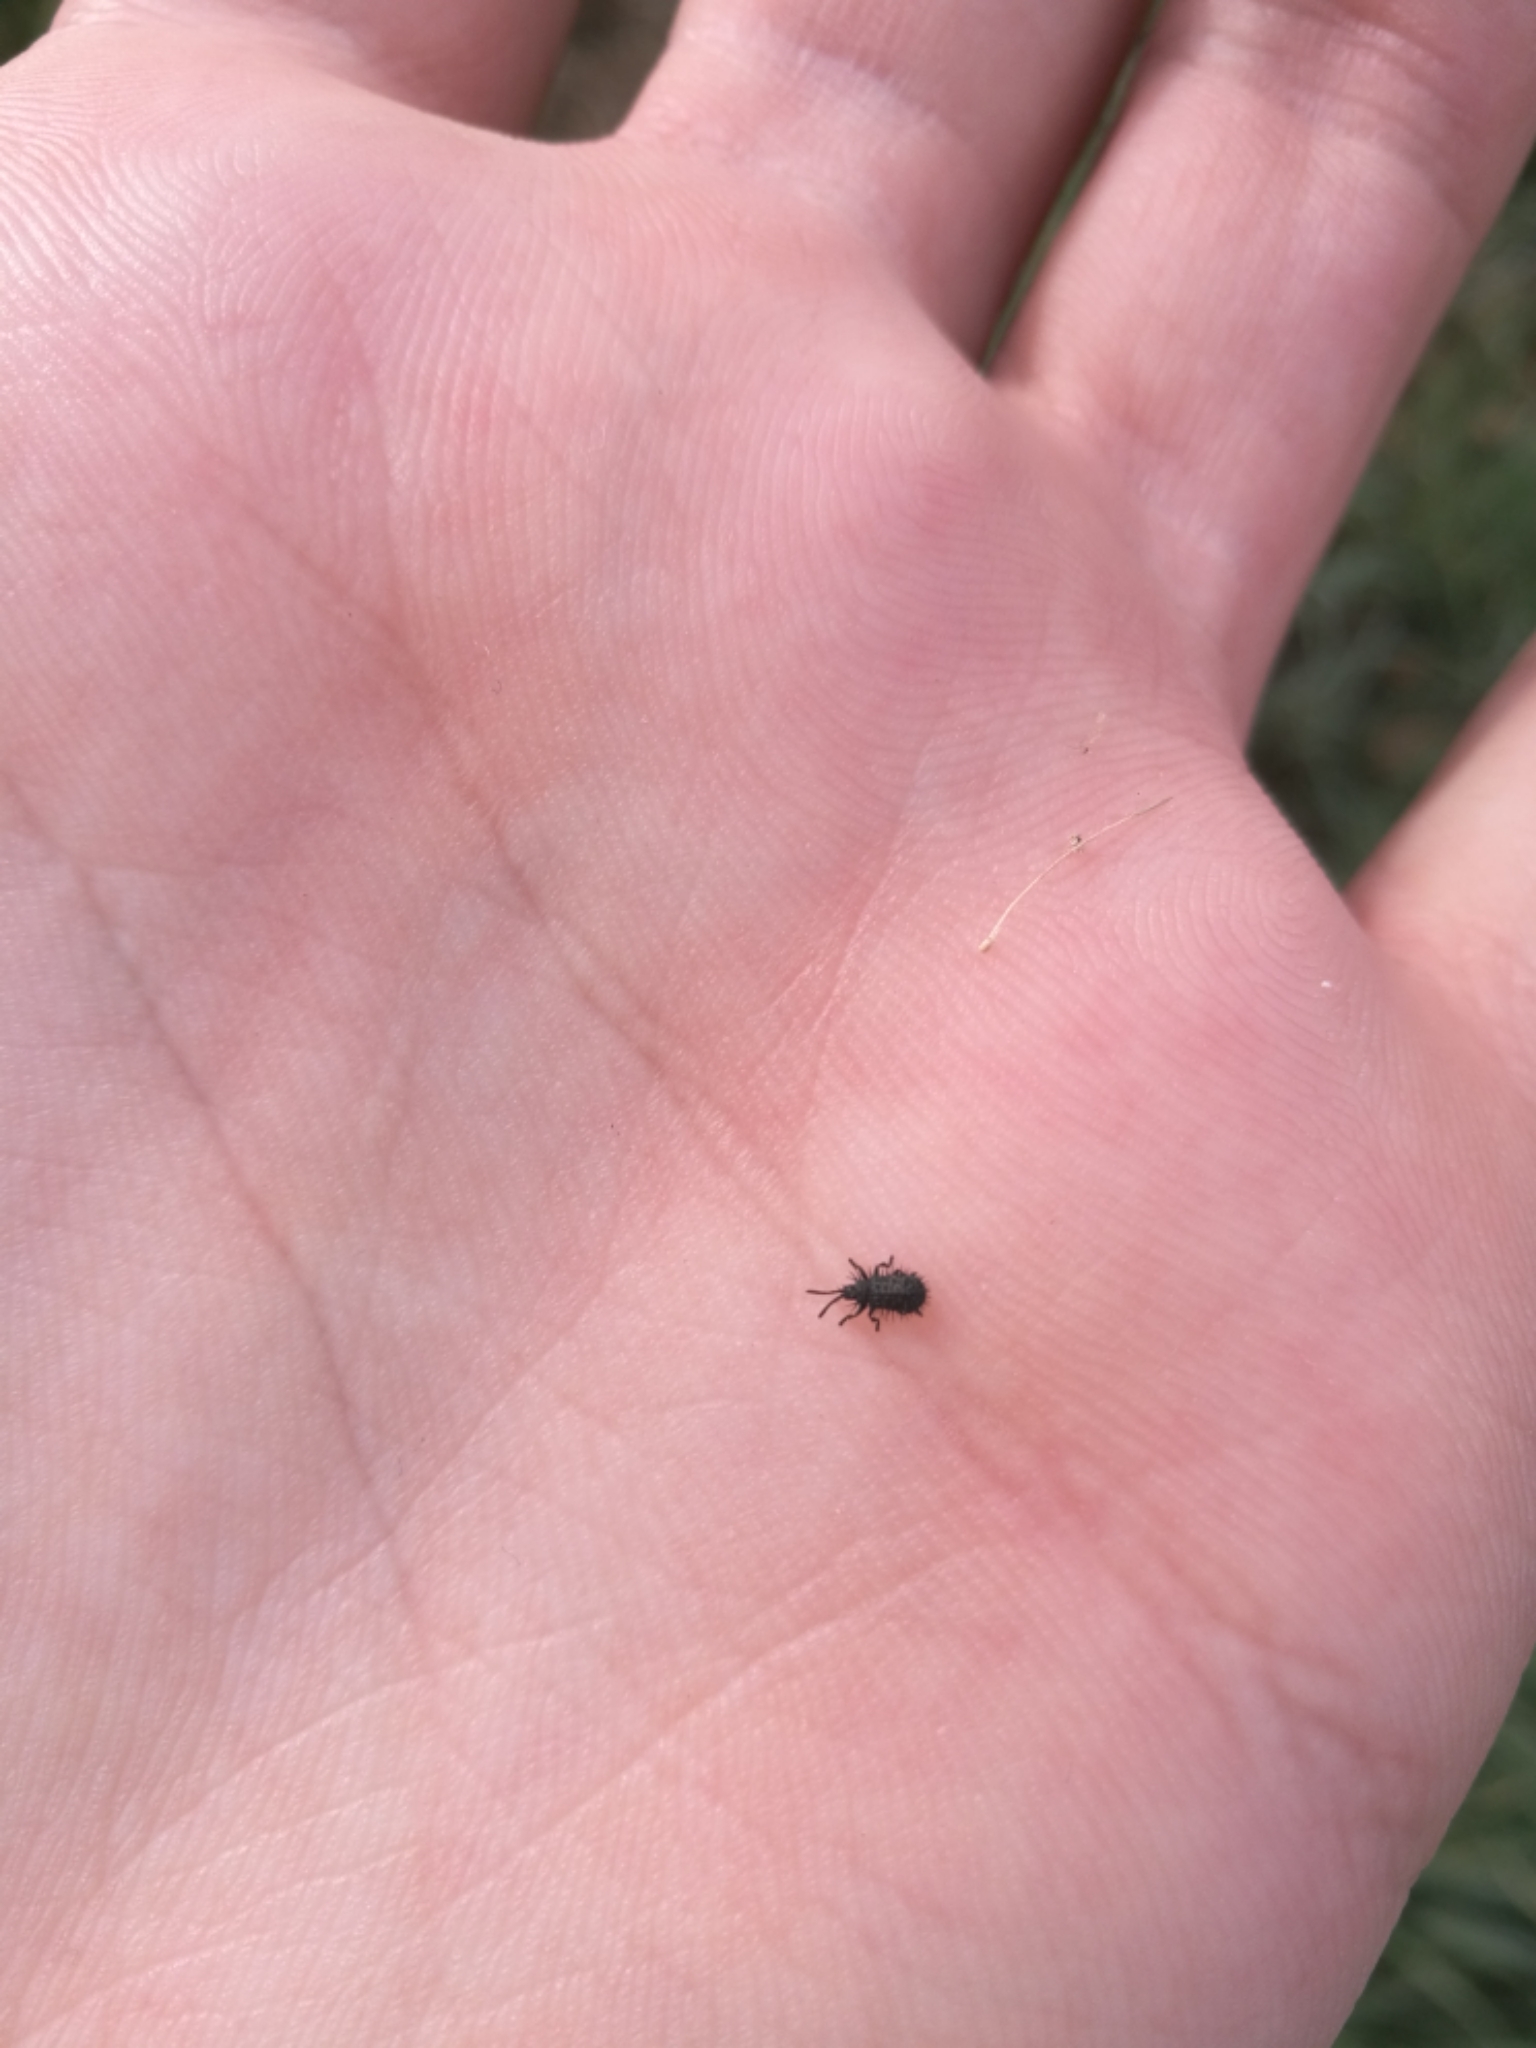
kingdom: Animalia
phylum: Arthropoda
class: Insecta
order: Coleoptera
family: Chrysomelidae
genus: Hispa
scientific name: Hispa atra
